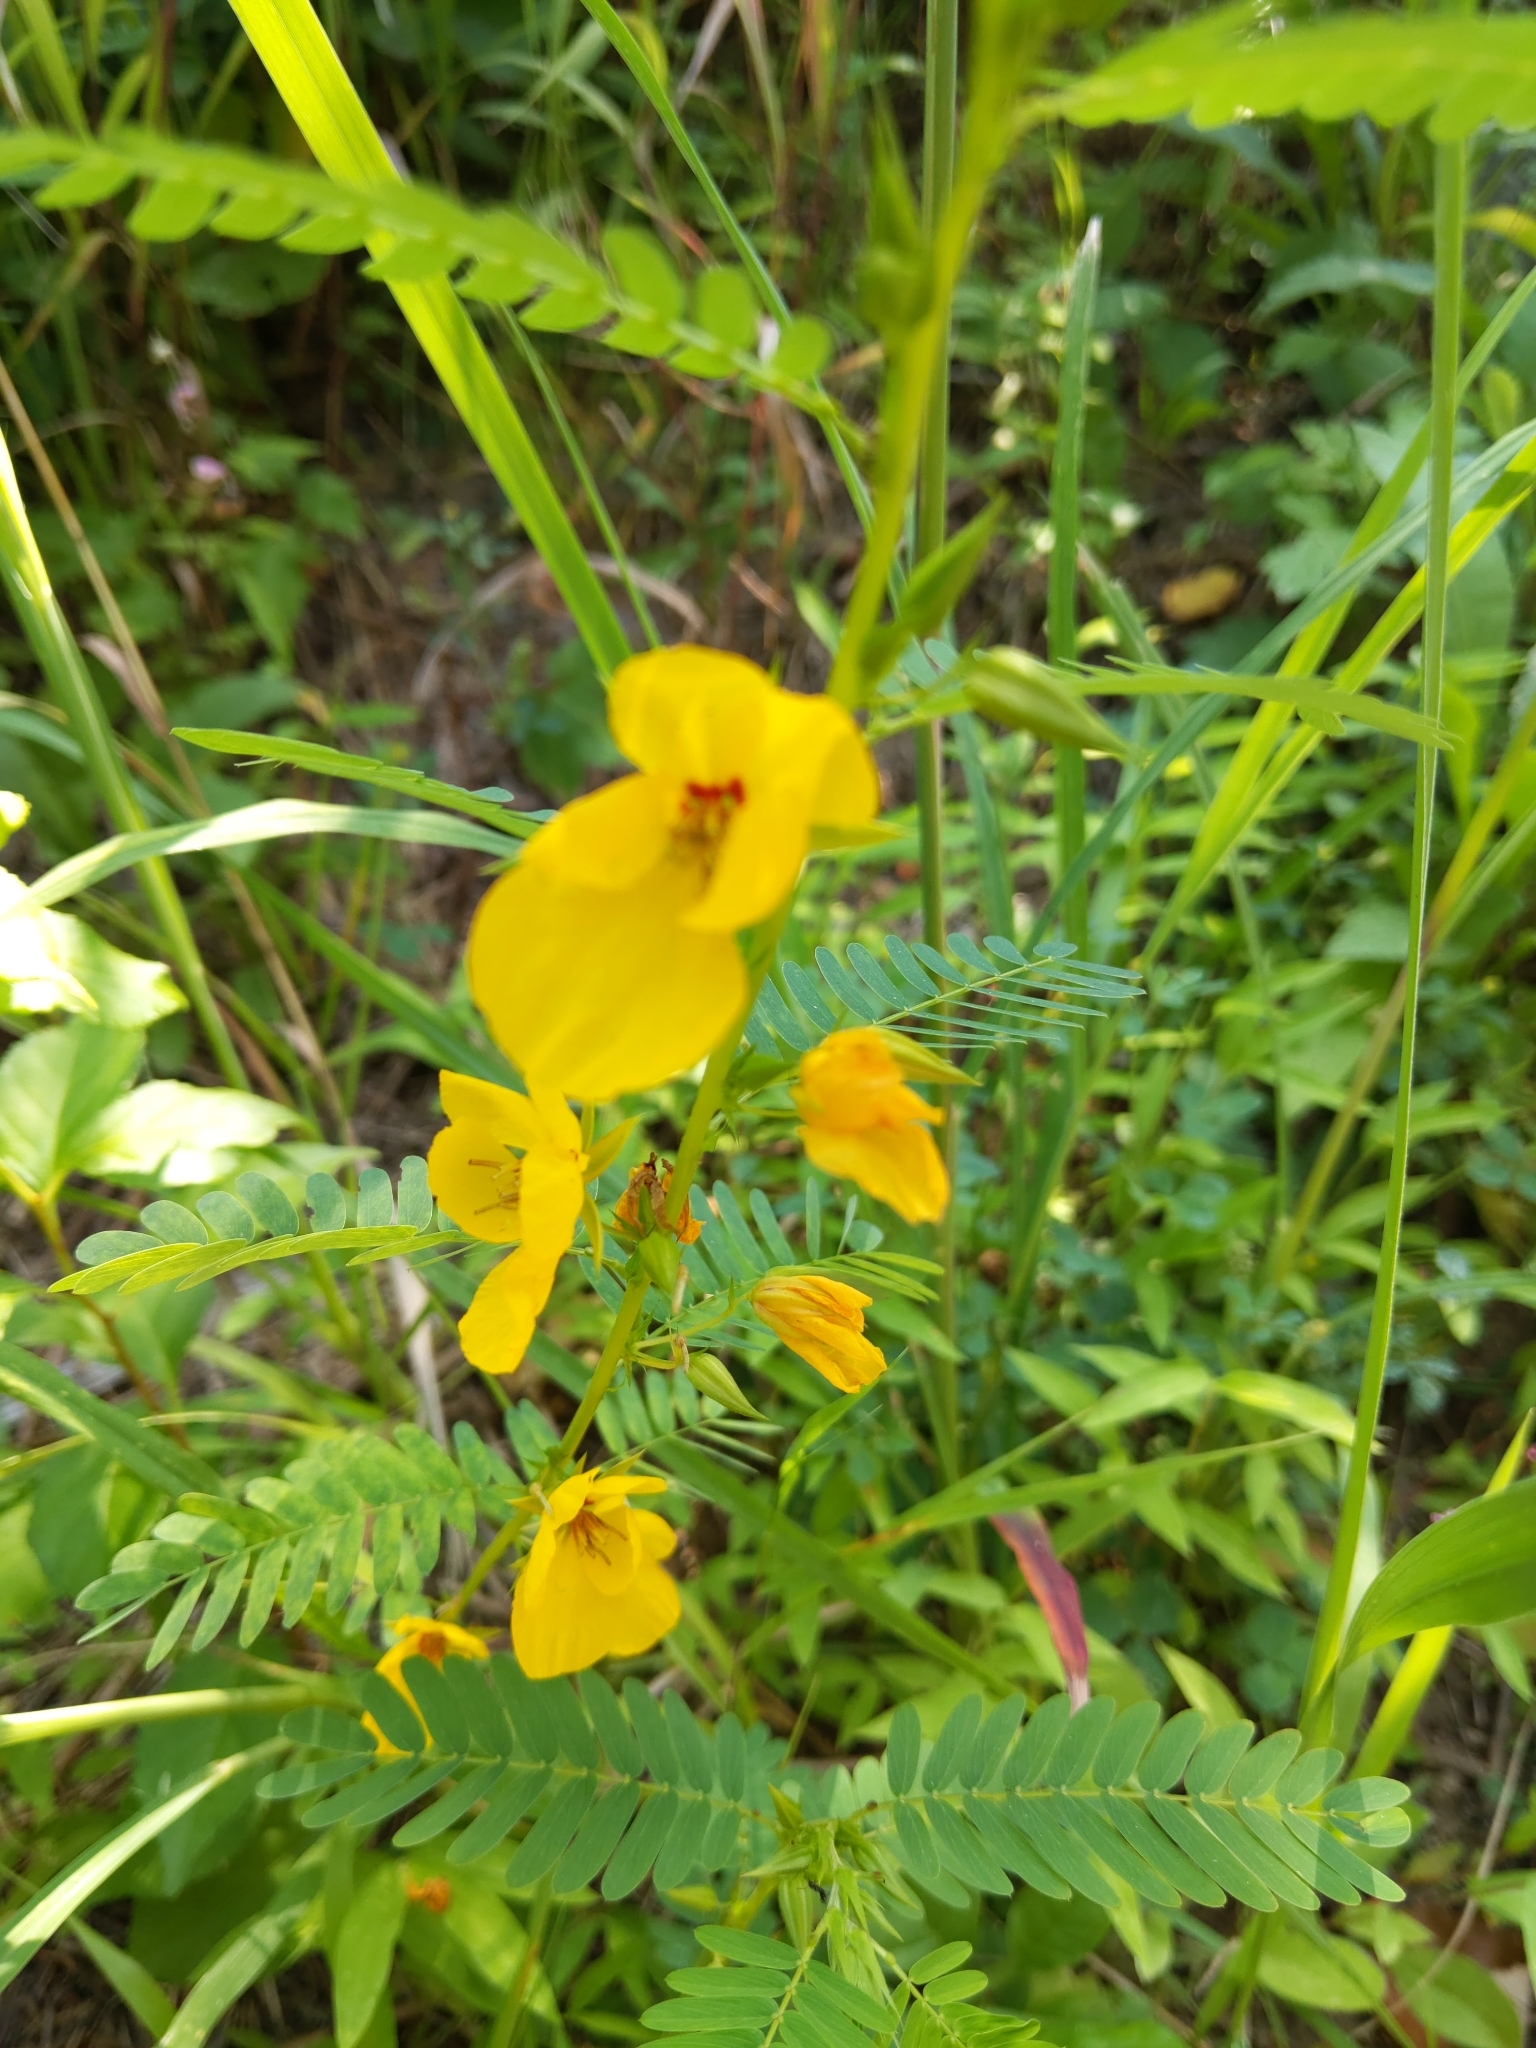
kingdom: Plantae
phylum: Tracheophyta
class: Magnoliopsida
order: Fabales
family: Fabaceae
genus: Chamaecrista
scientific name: Chamaecrista fasciculata
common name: Golden cassia
